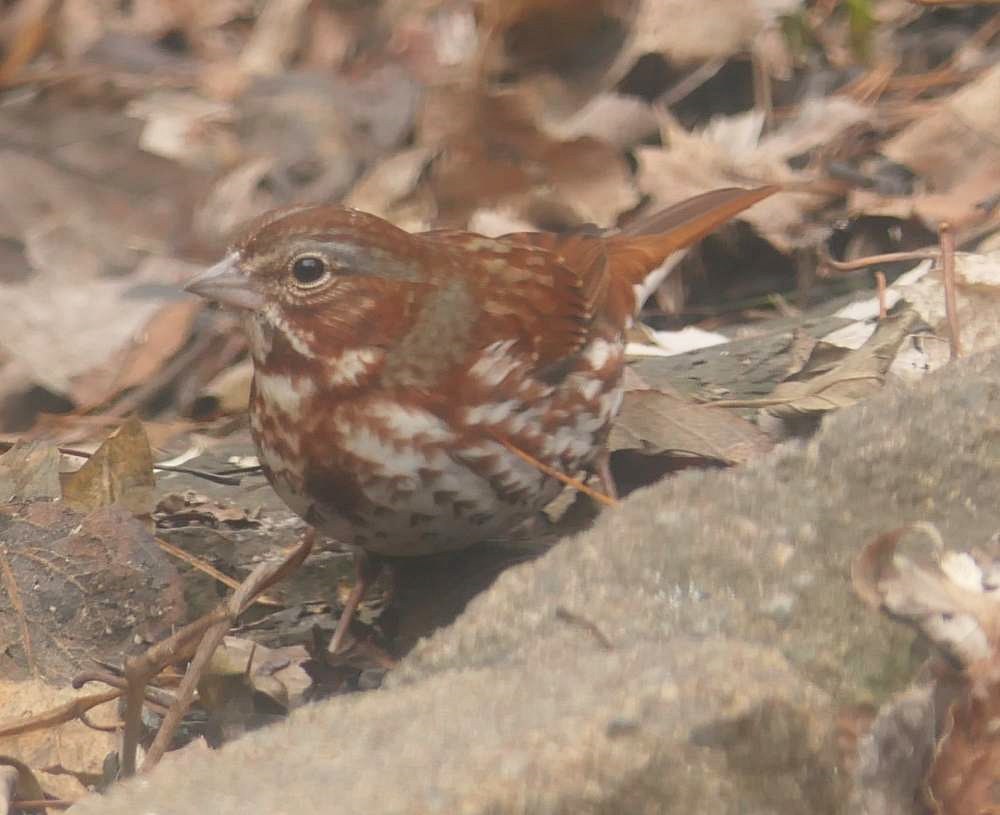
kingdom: Animalia
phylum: Chordata
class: Aves
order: Passeriformes
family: Passerellidae
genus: Passerella
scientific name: Passerella iliaca
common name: Fox sparrow
